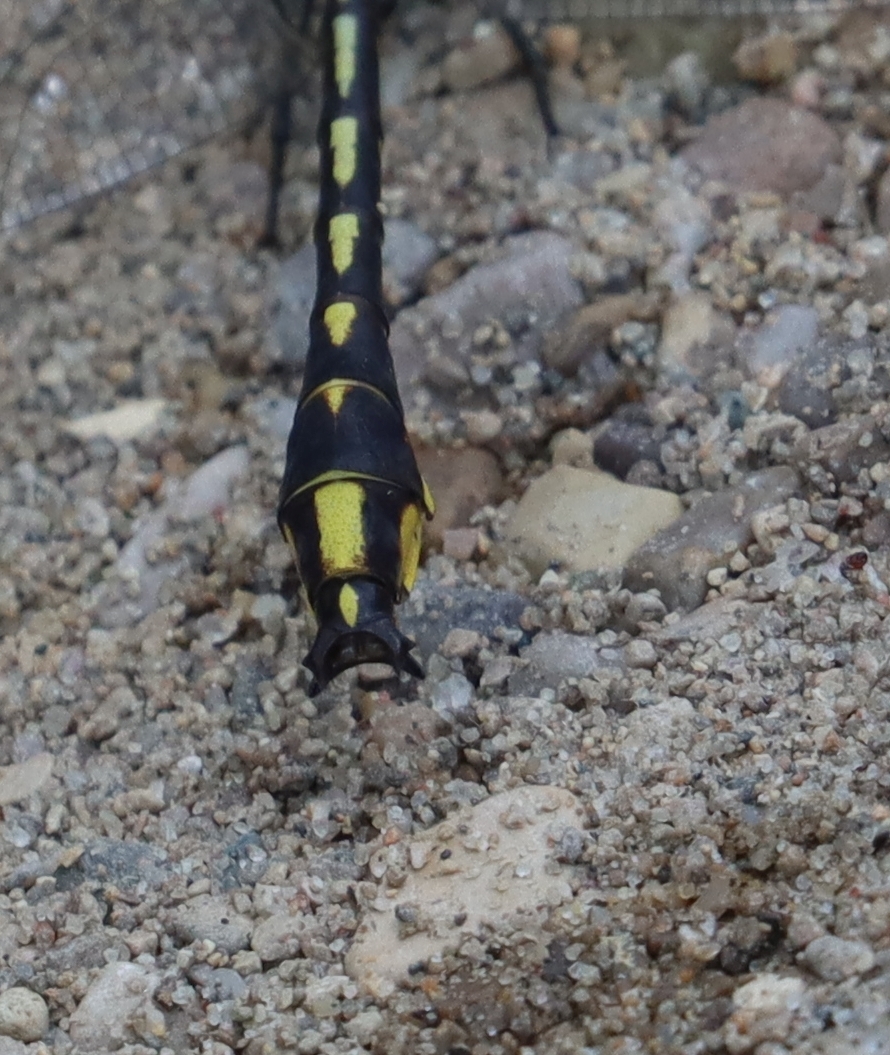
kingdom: Animalia
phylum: Arthropoda
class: Insecta
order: Odonata
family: Gomphidae
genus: Phanogomphus
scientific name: Phanogomphus graslinellus
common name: Pronghorn clubtail
